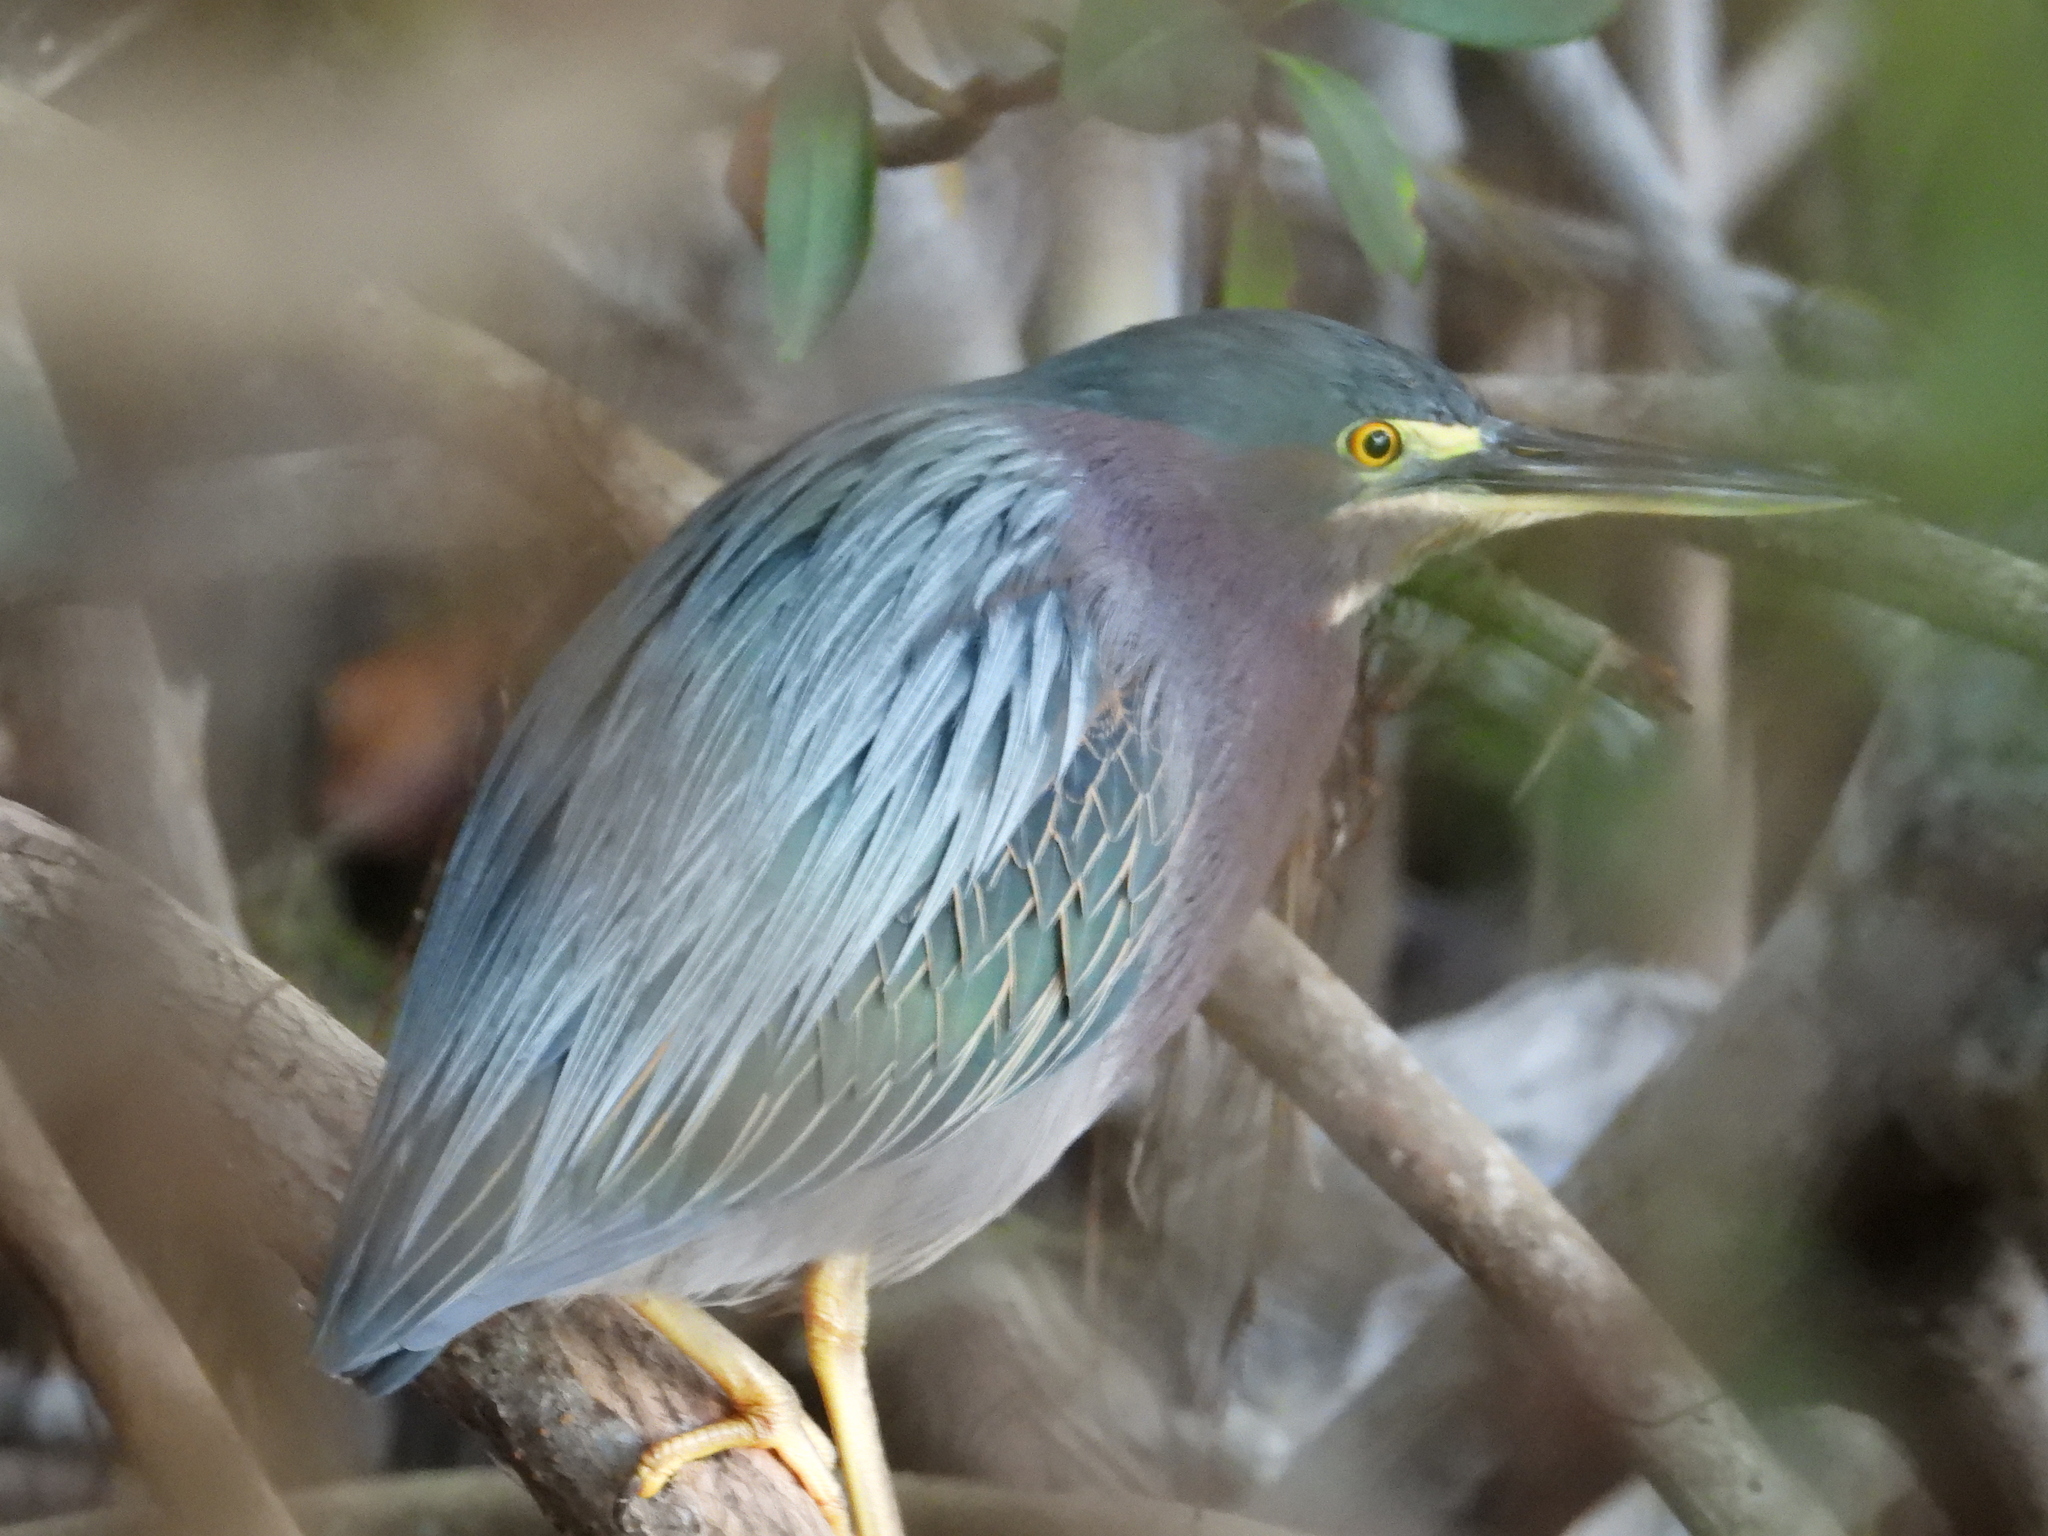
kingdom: Animalia
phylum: Chordata
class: Aves
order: Pelecaniformes
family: Ardeidae
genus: Butorides
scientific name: Butorides virescens
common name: Green heron
